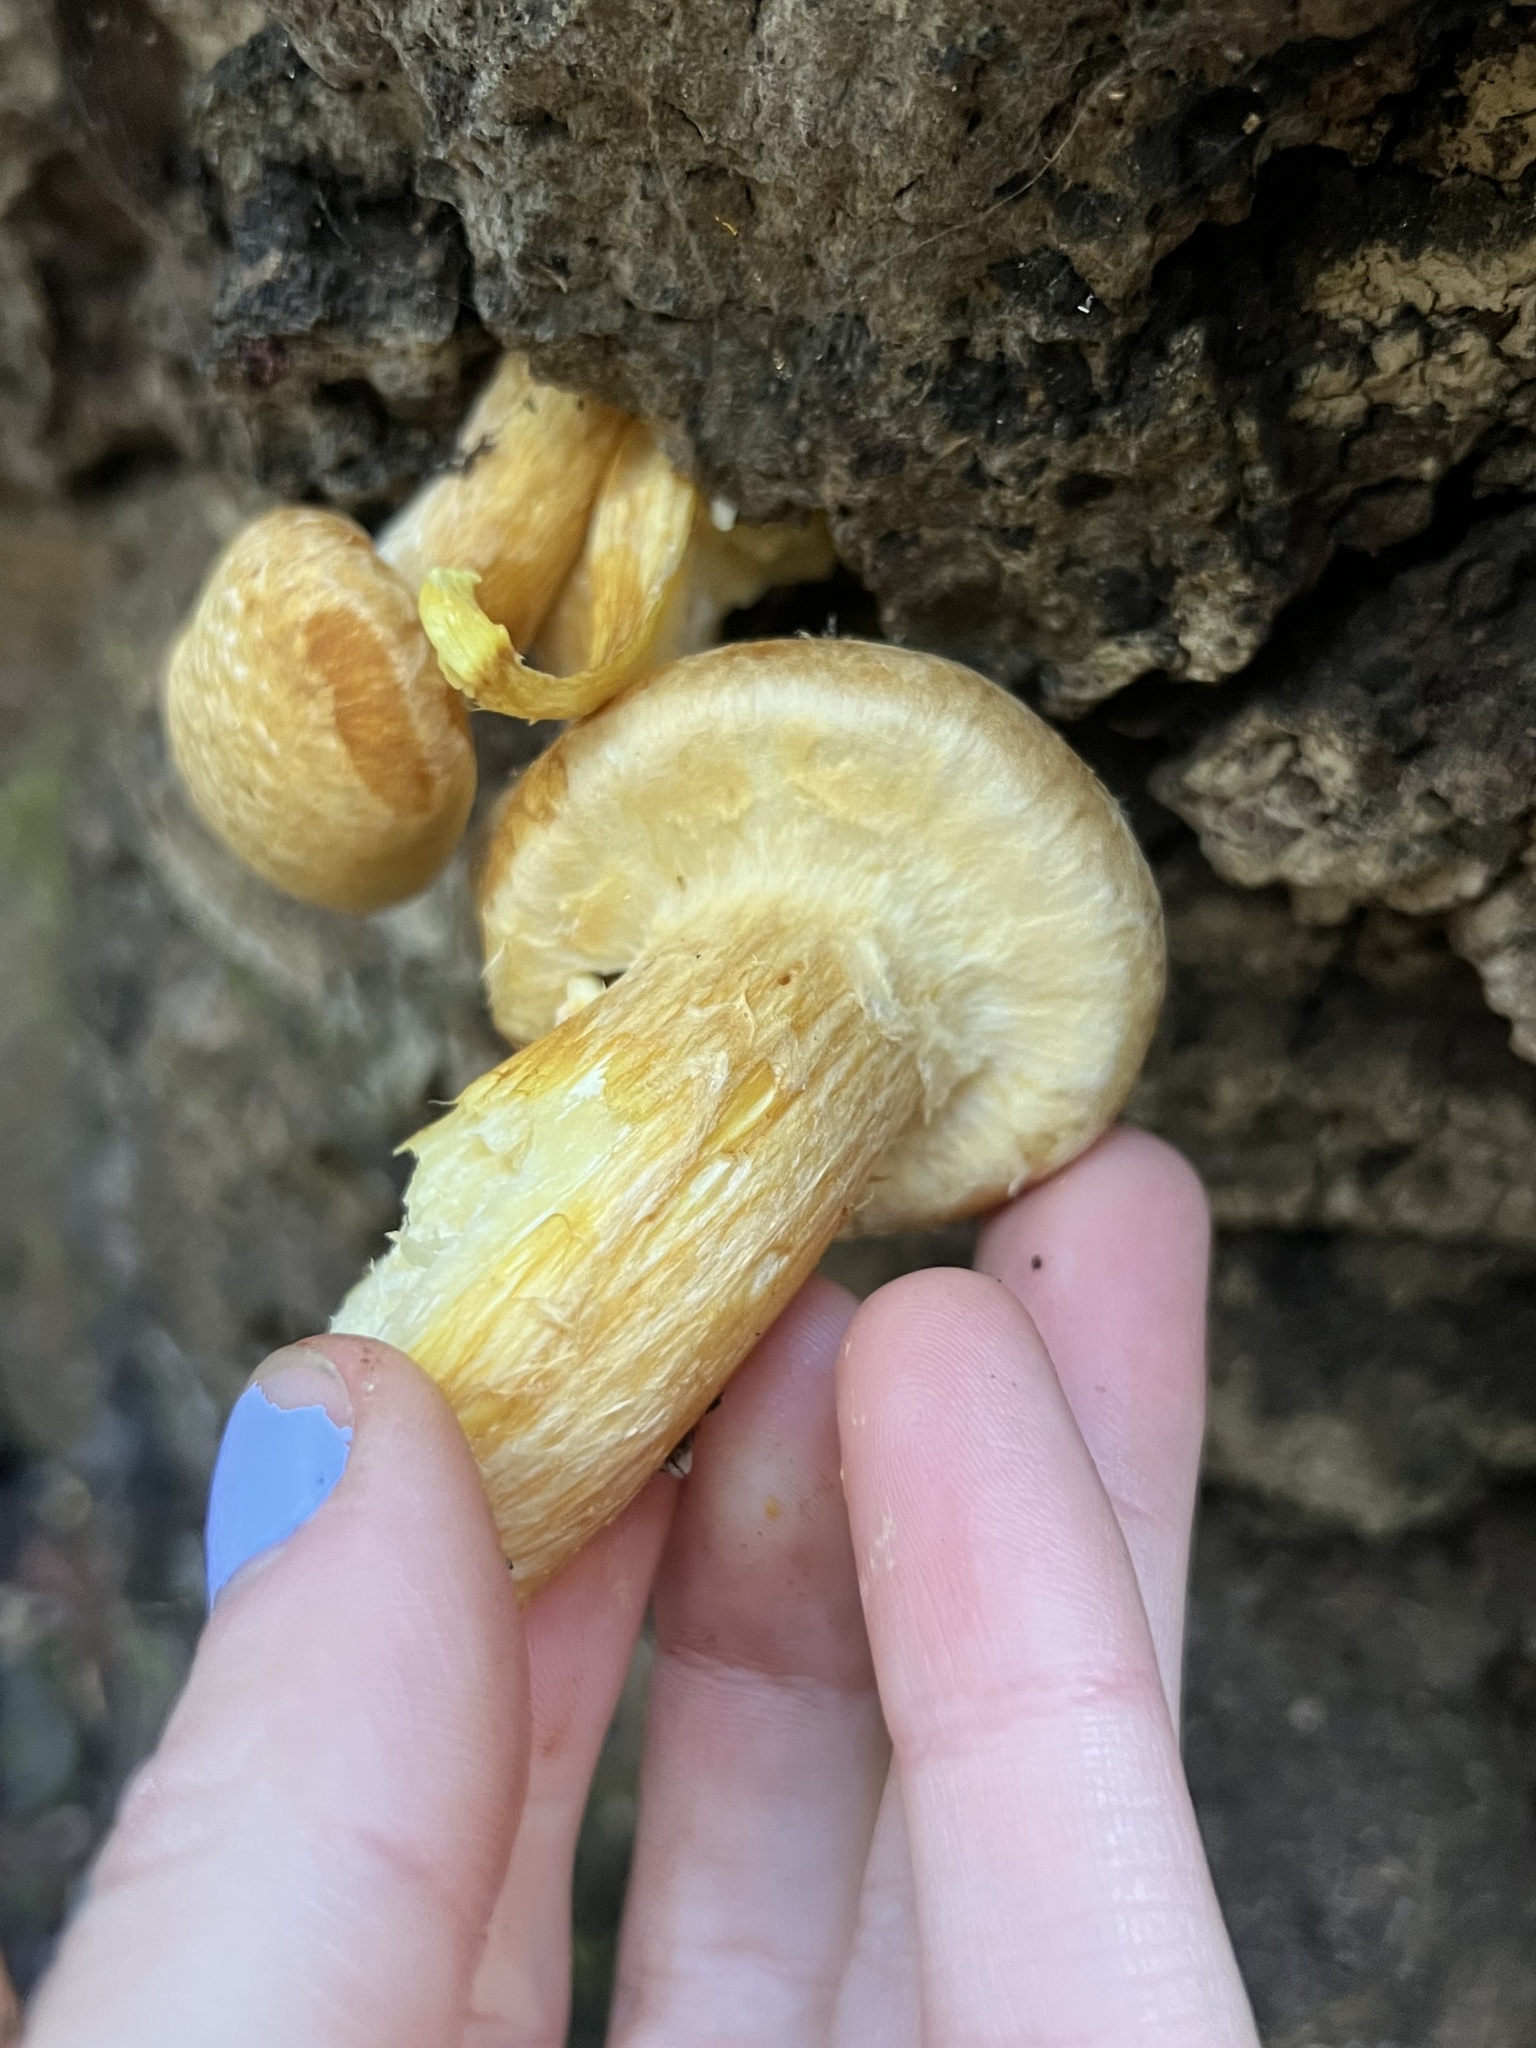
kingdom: Fungi
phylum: Basidiomycota
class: Agaricomycetes
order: Agaricales
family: Hymenogastraceae
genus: Gymnopilus
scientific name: Gymnopilus ventricosus
